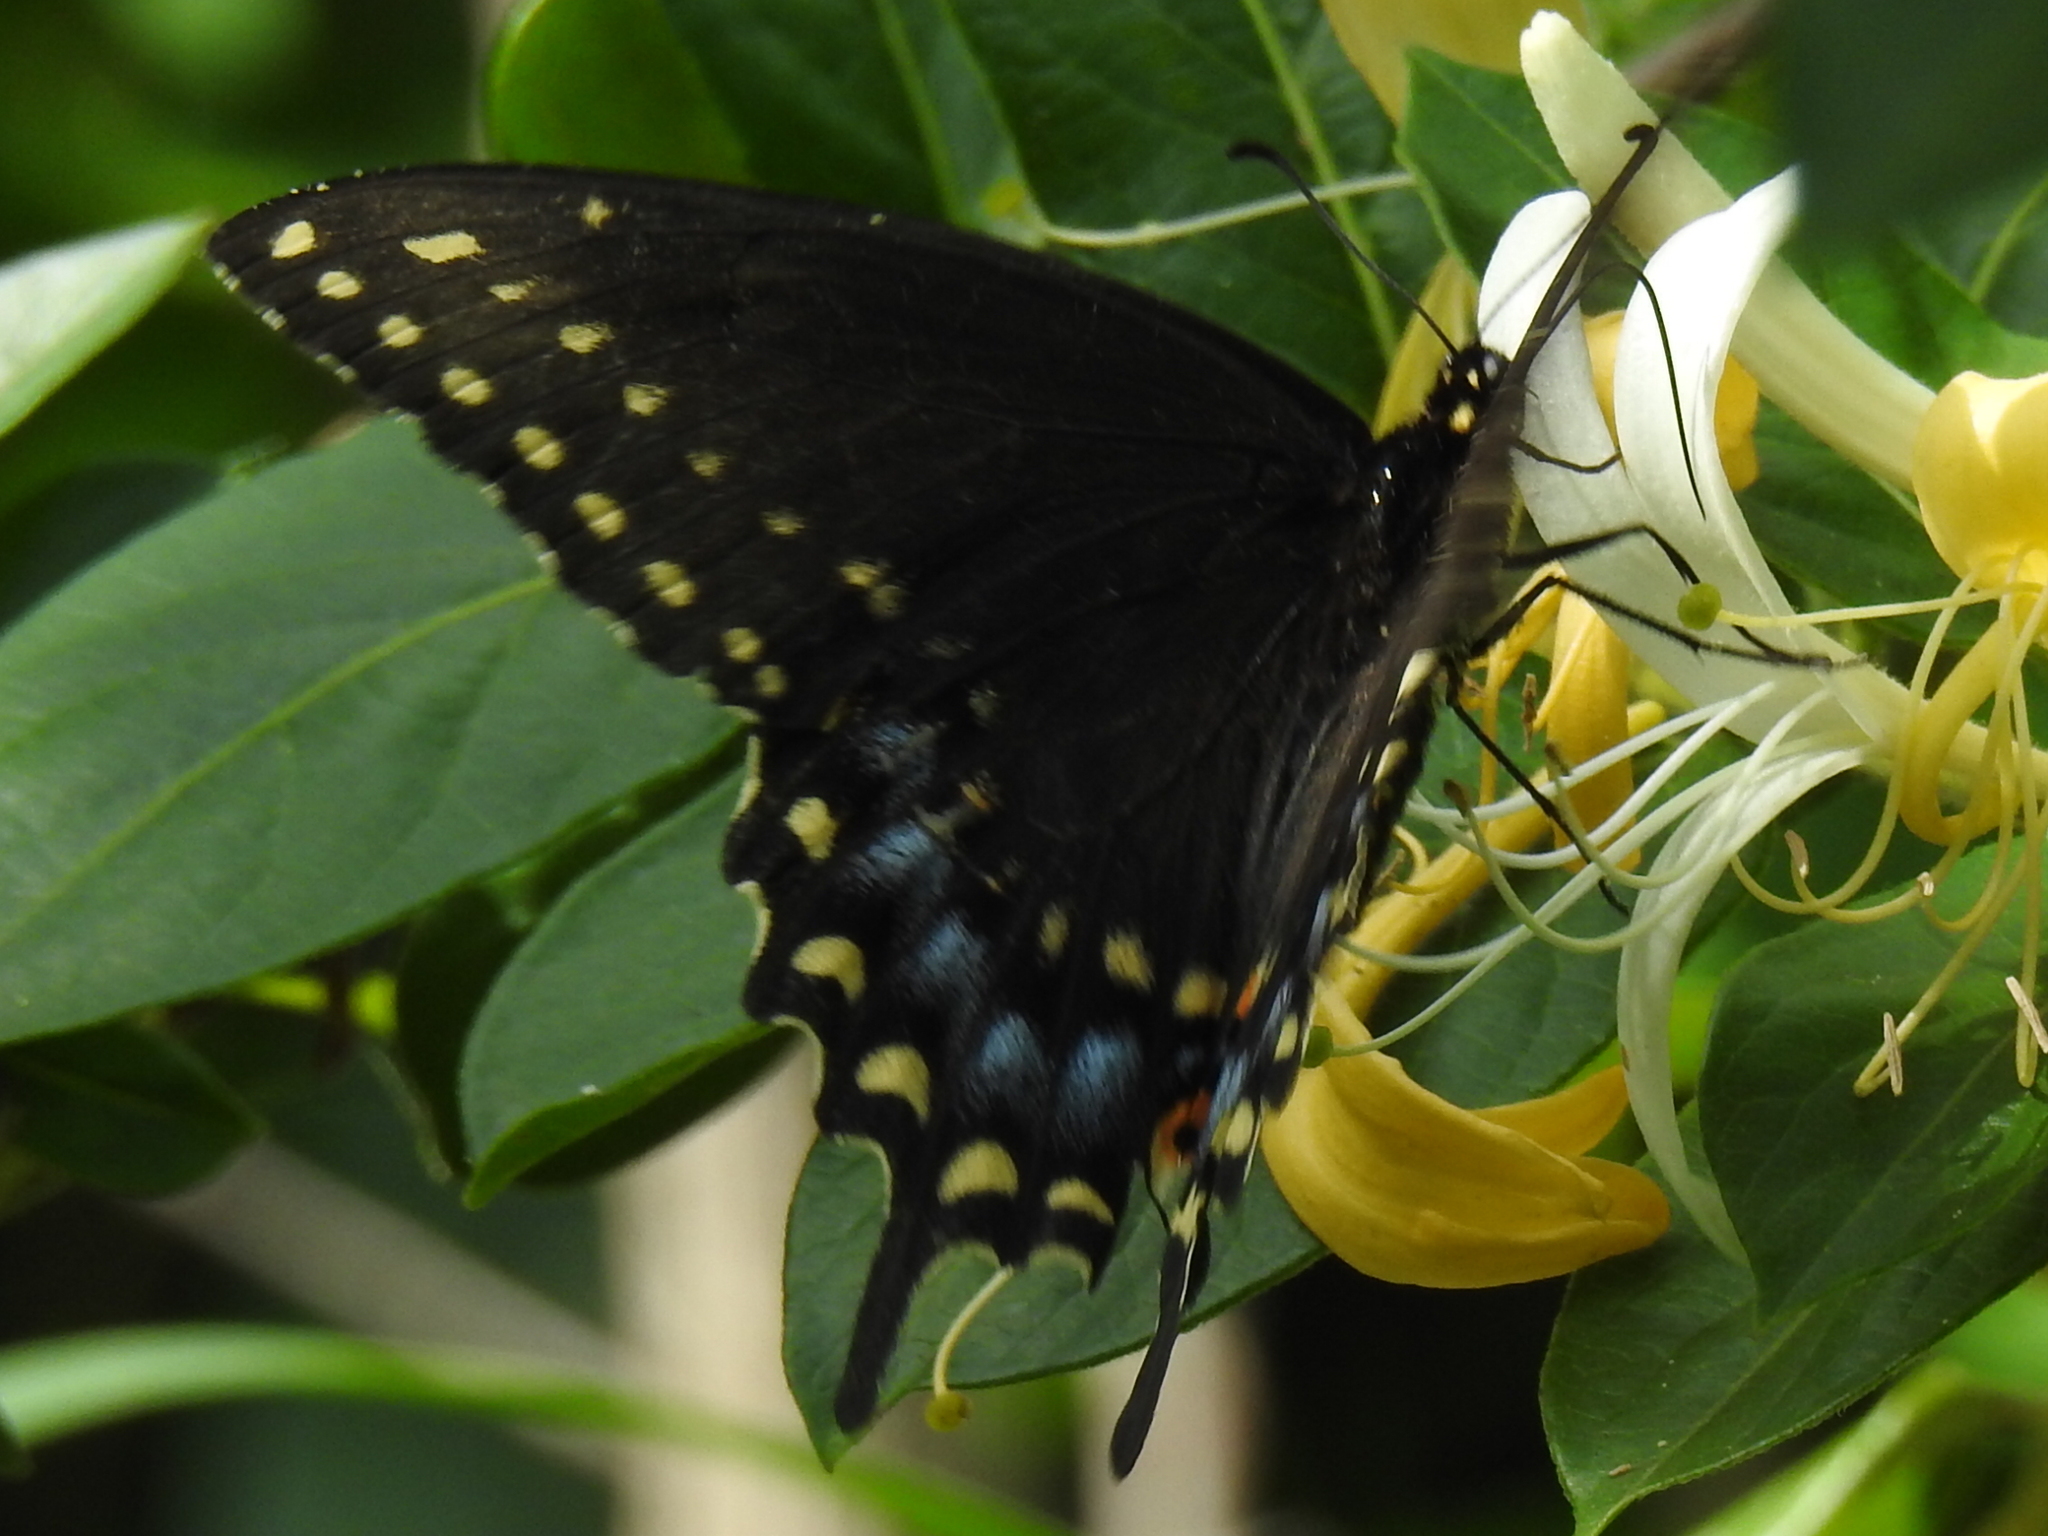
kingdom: Animalia
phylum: Arthropoda
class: Insecta
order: Lepidoptera
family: Papilionidae
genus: Papilio
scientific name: Papilio polyxenes
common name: Black swallowtail
